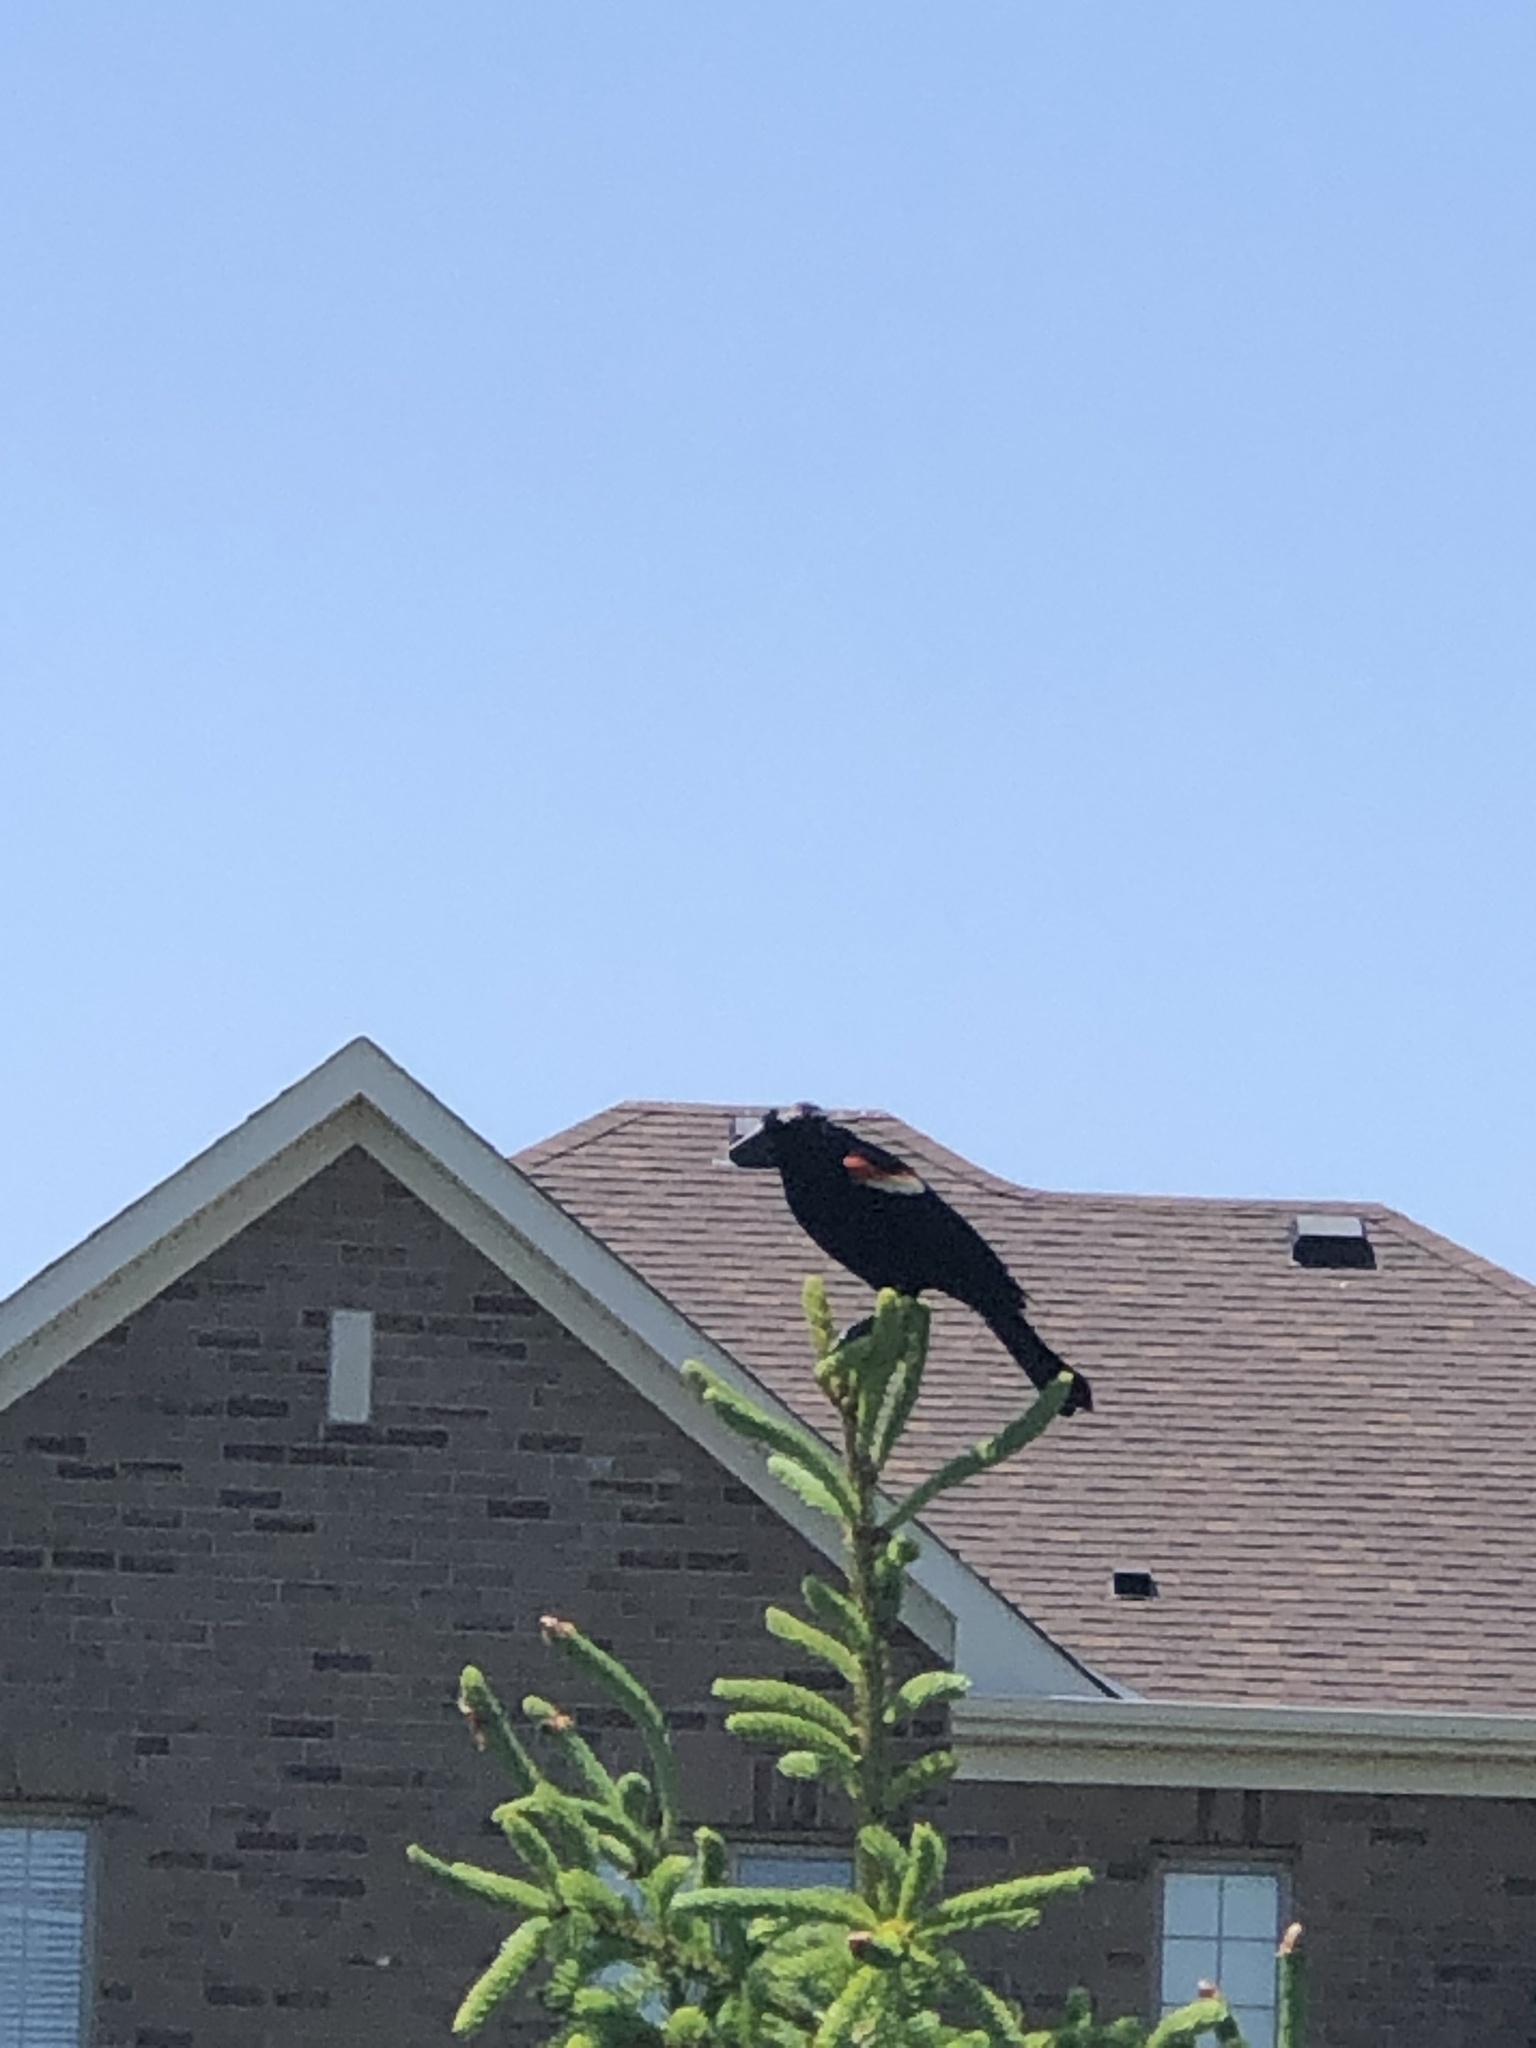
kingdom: Animalia
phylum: Chordata
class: Aves
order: Passeriformes
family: Icteridae
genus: Agelaius
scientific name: Agelaius phoeniceus
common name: Red-winged blackbird
